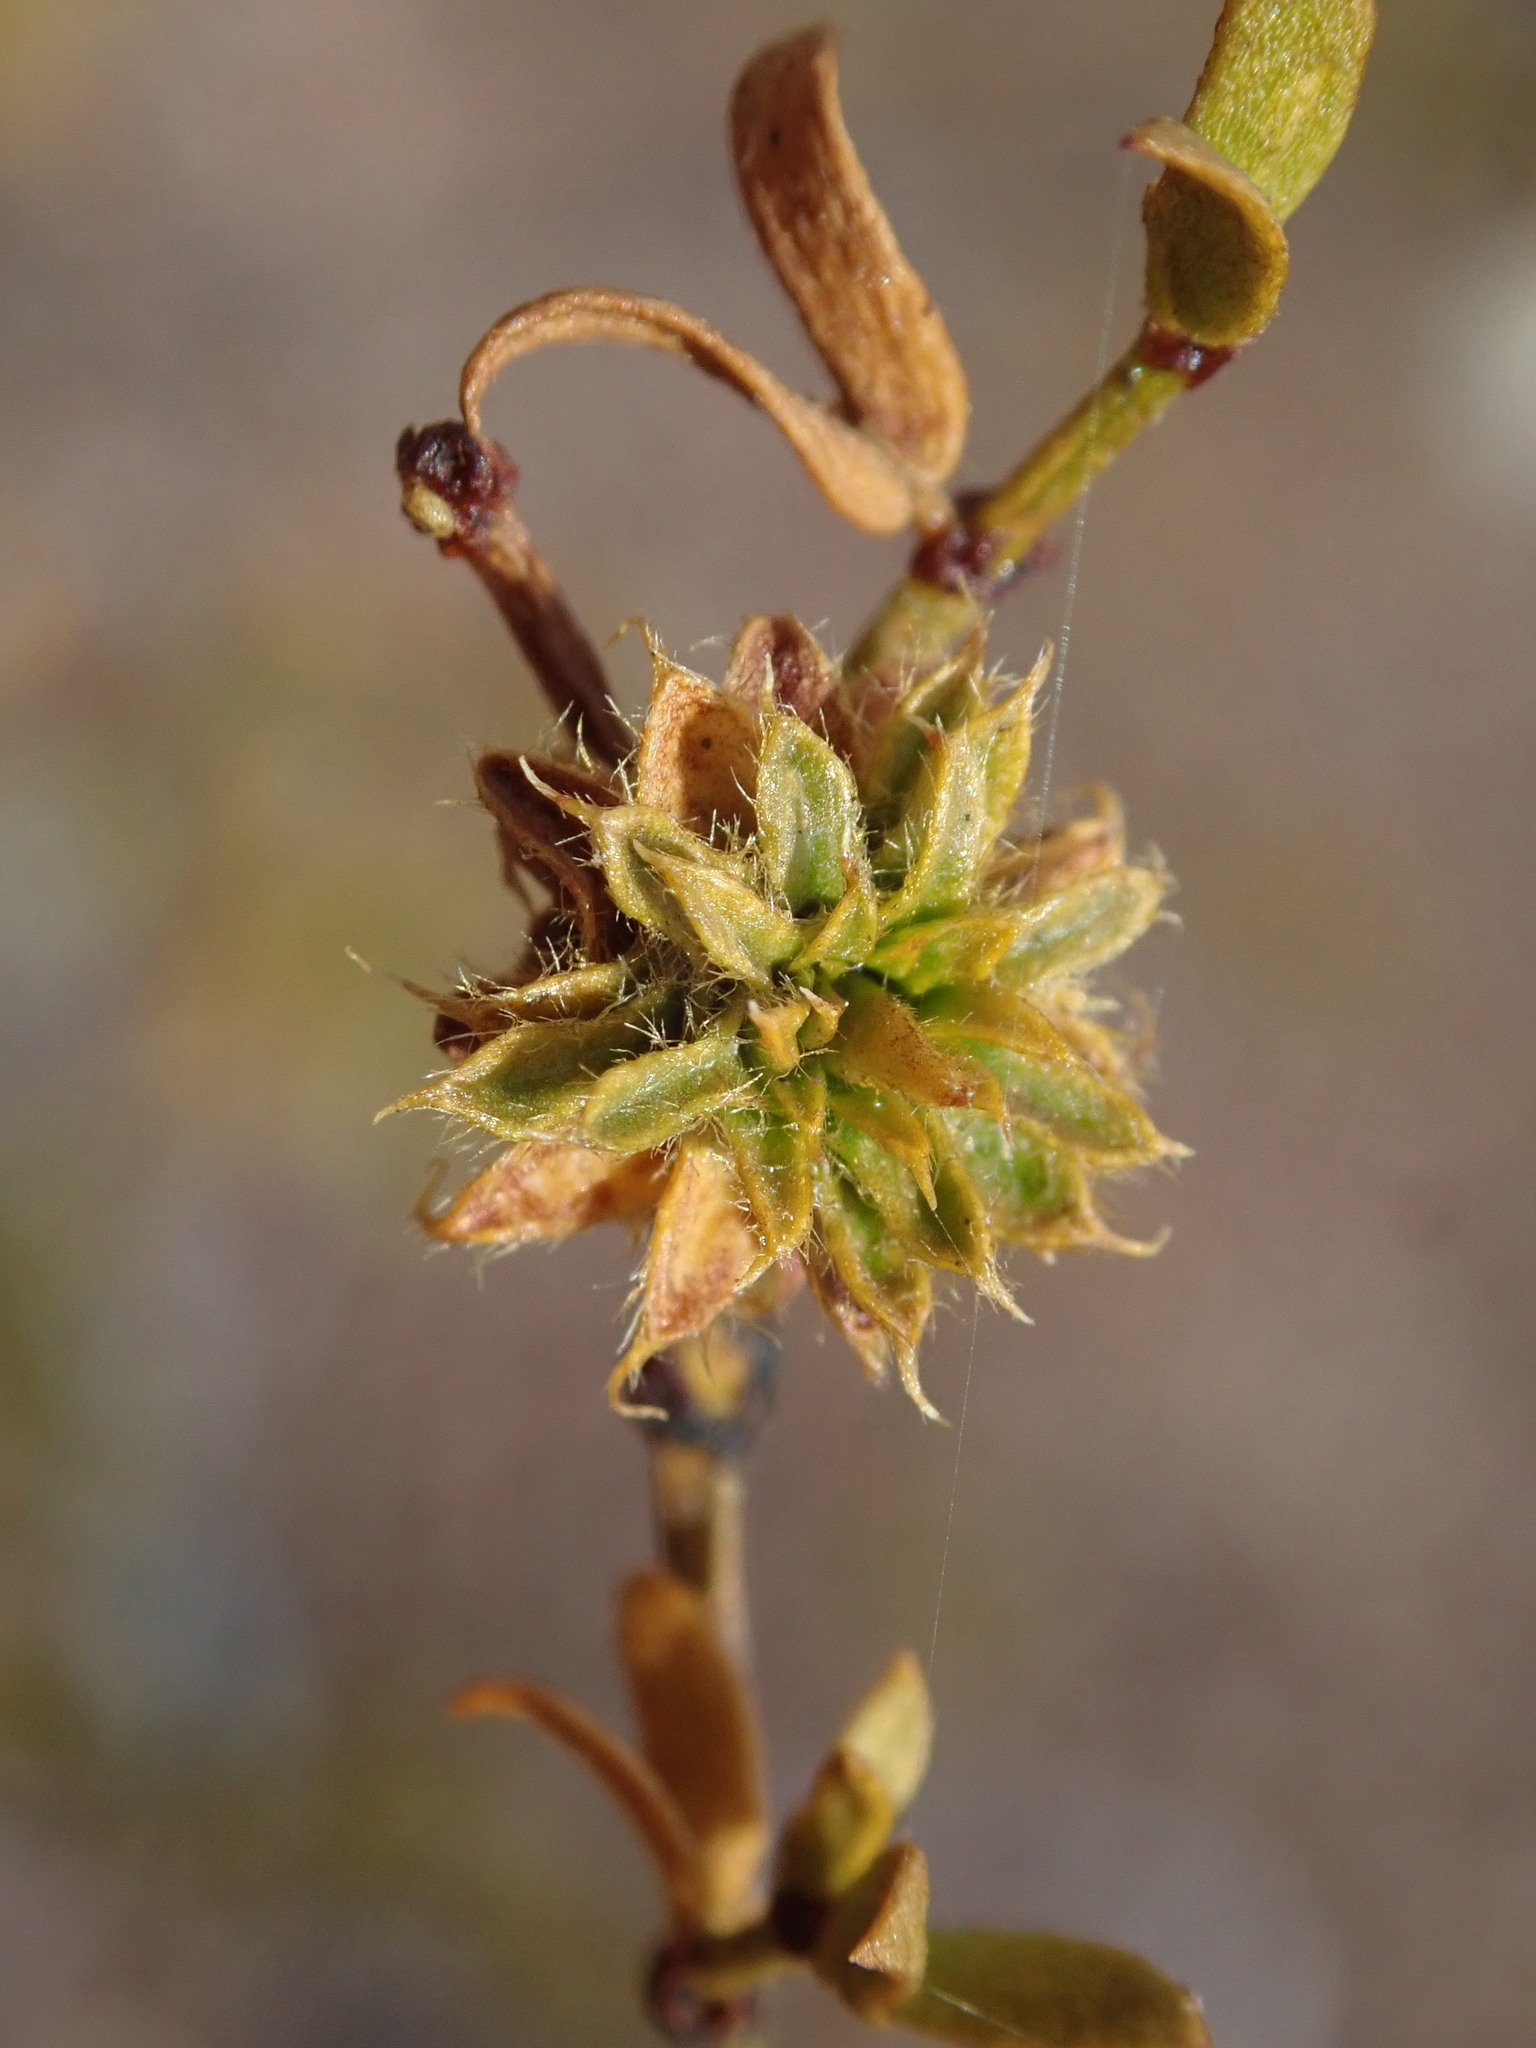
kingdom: Animalia
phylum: Arthropoda
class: Insecta
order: Diptera
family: Cecidomyiidae
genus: Asphondylia
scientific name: Asphondylia rosetta
